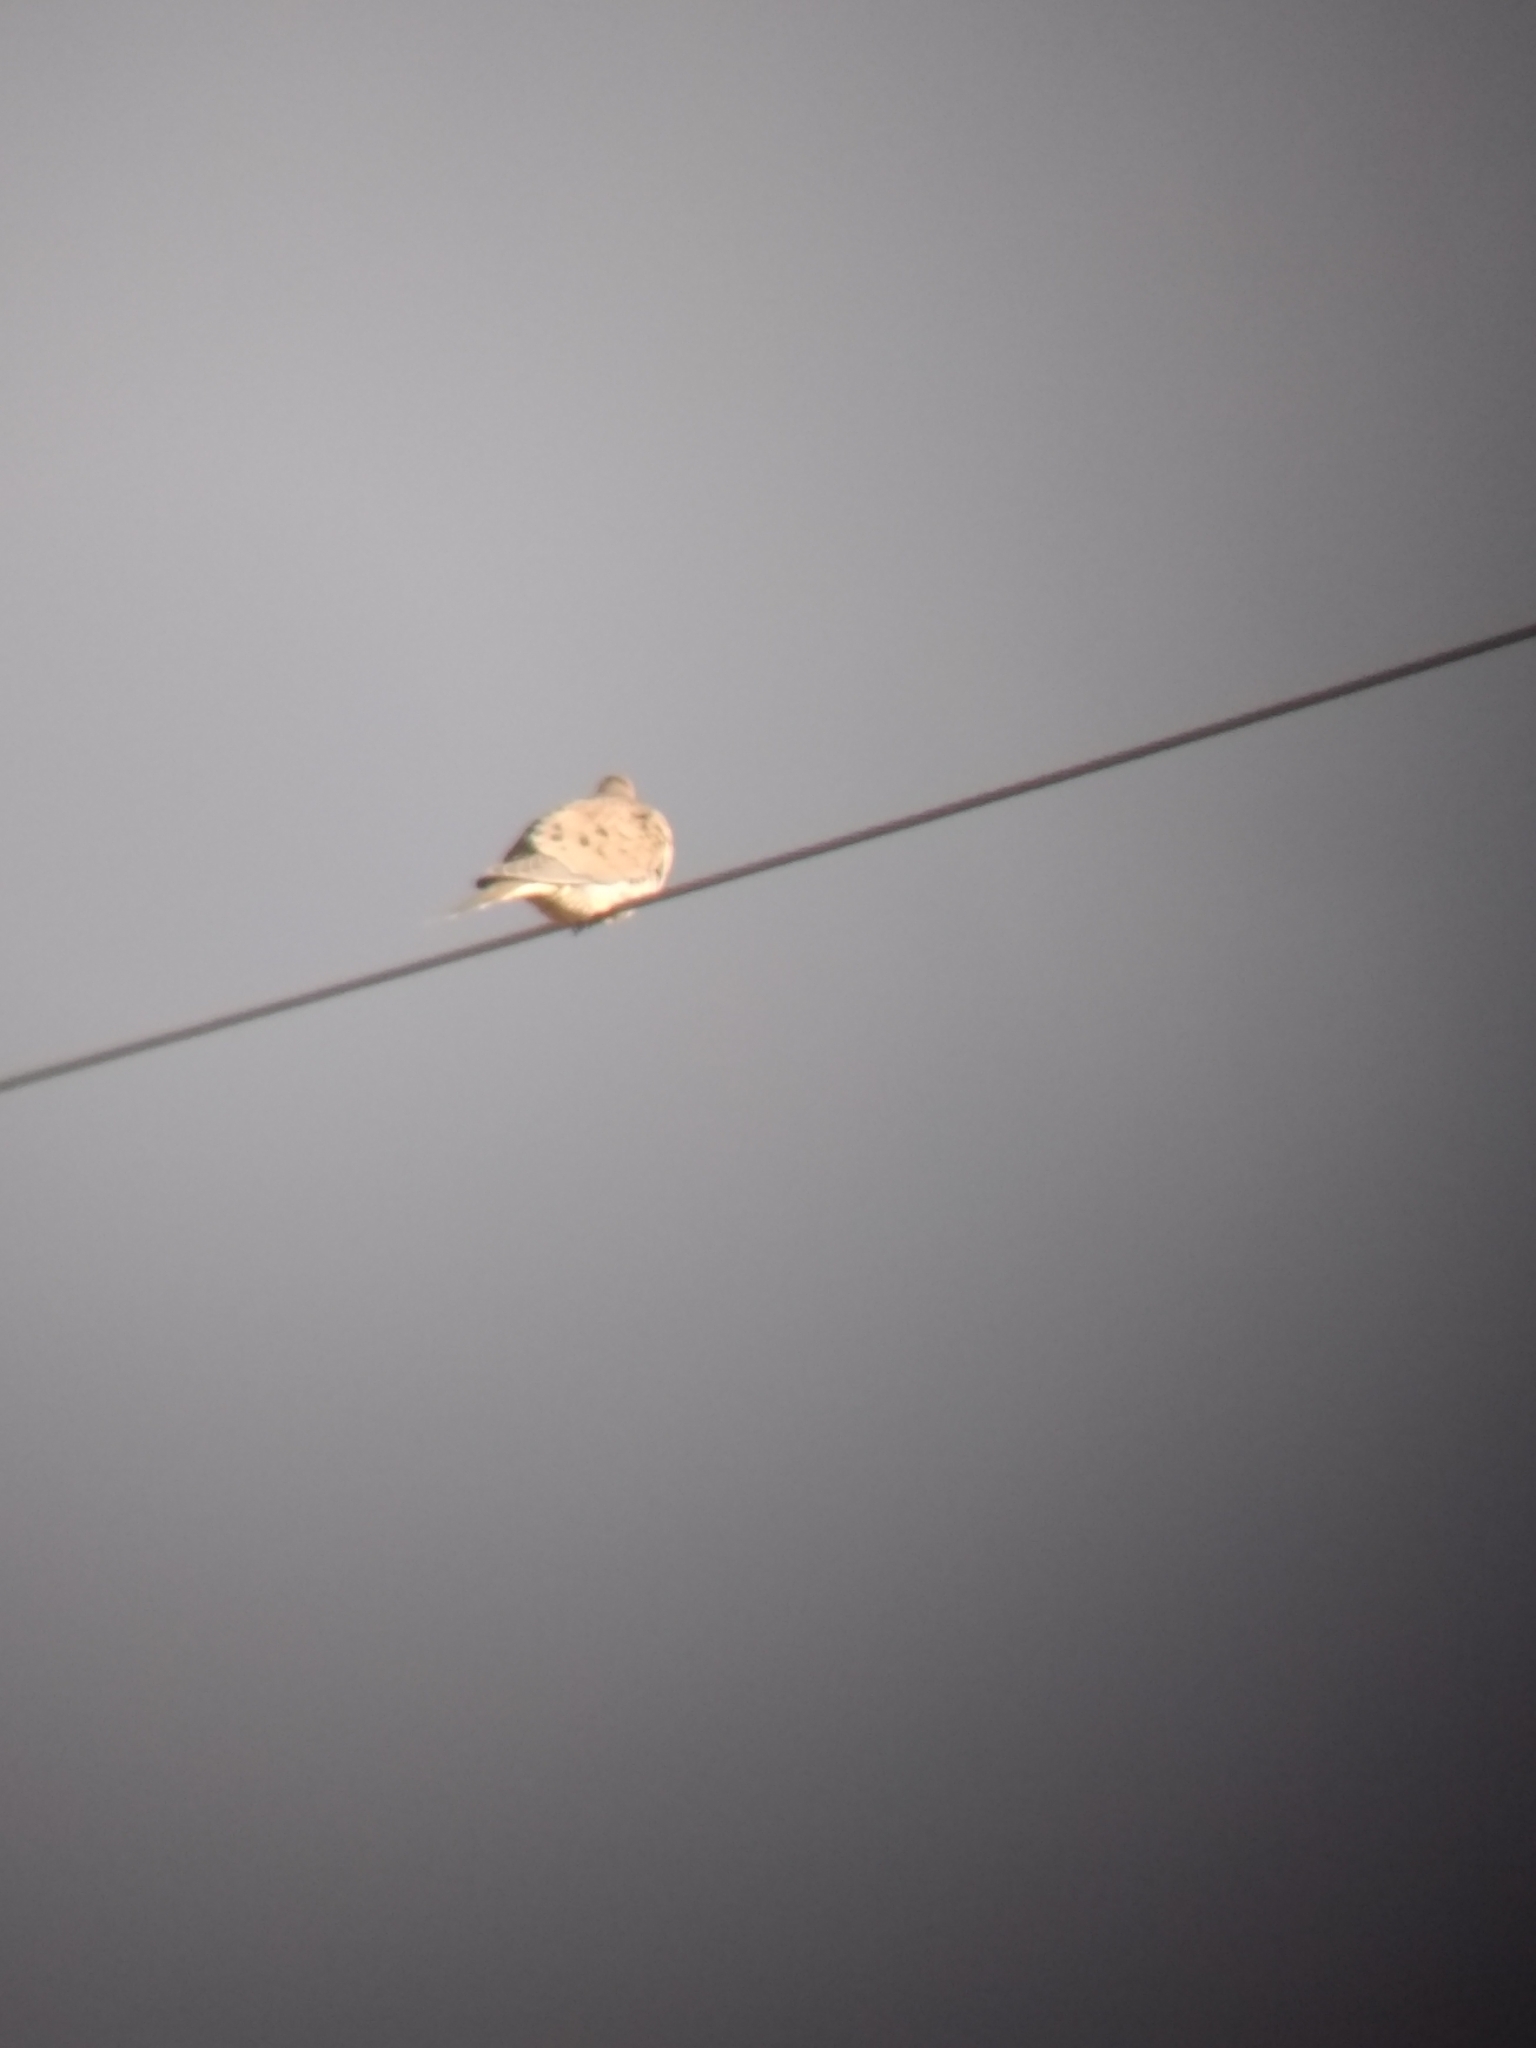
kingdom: Animalia
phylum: Chordata
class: Aves
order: Columbiformes
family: Columbidae
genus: Zenaida
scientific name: Zenaida macroura
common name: Mourning dove
